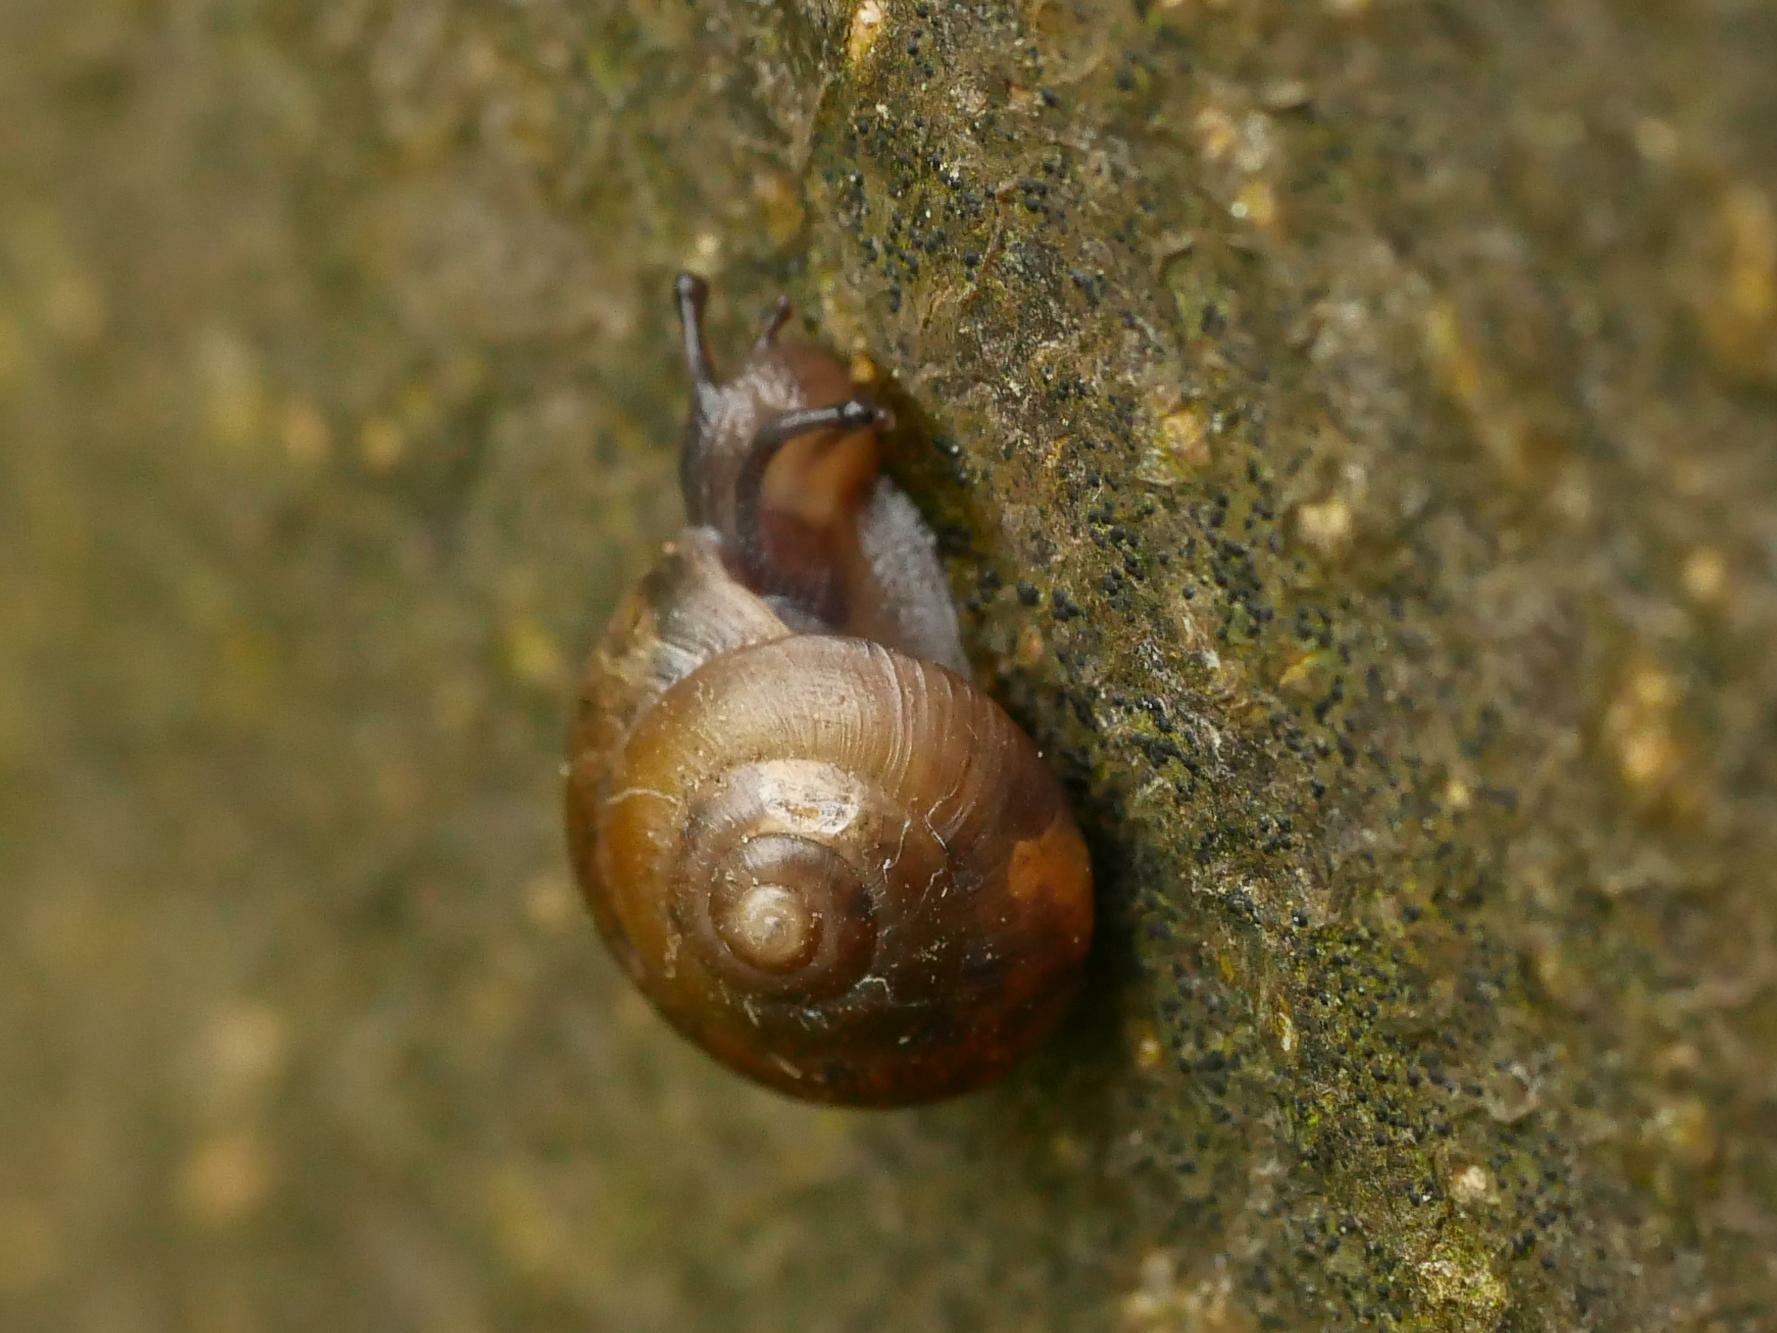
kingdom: Animalia
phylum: Mollusca
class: Gastropoda
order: Stylommatophora
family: Hygromiidae
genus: Hygromia
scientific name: Hygromia cinctella
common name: Girdled snail
